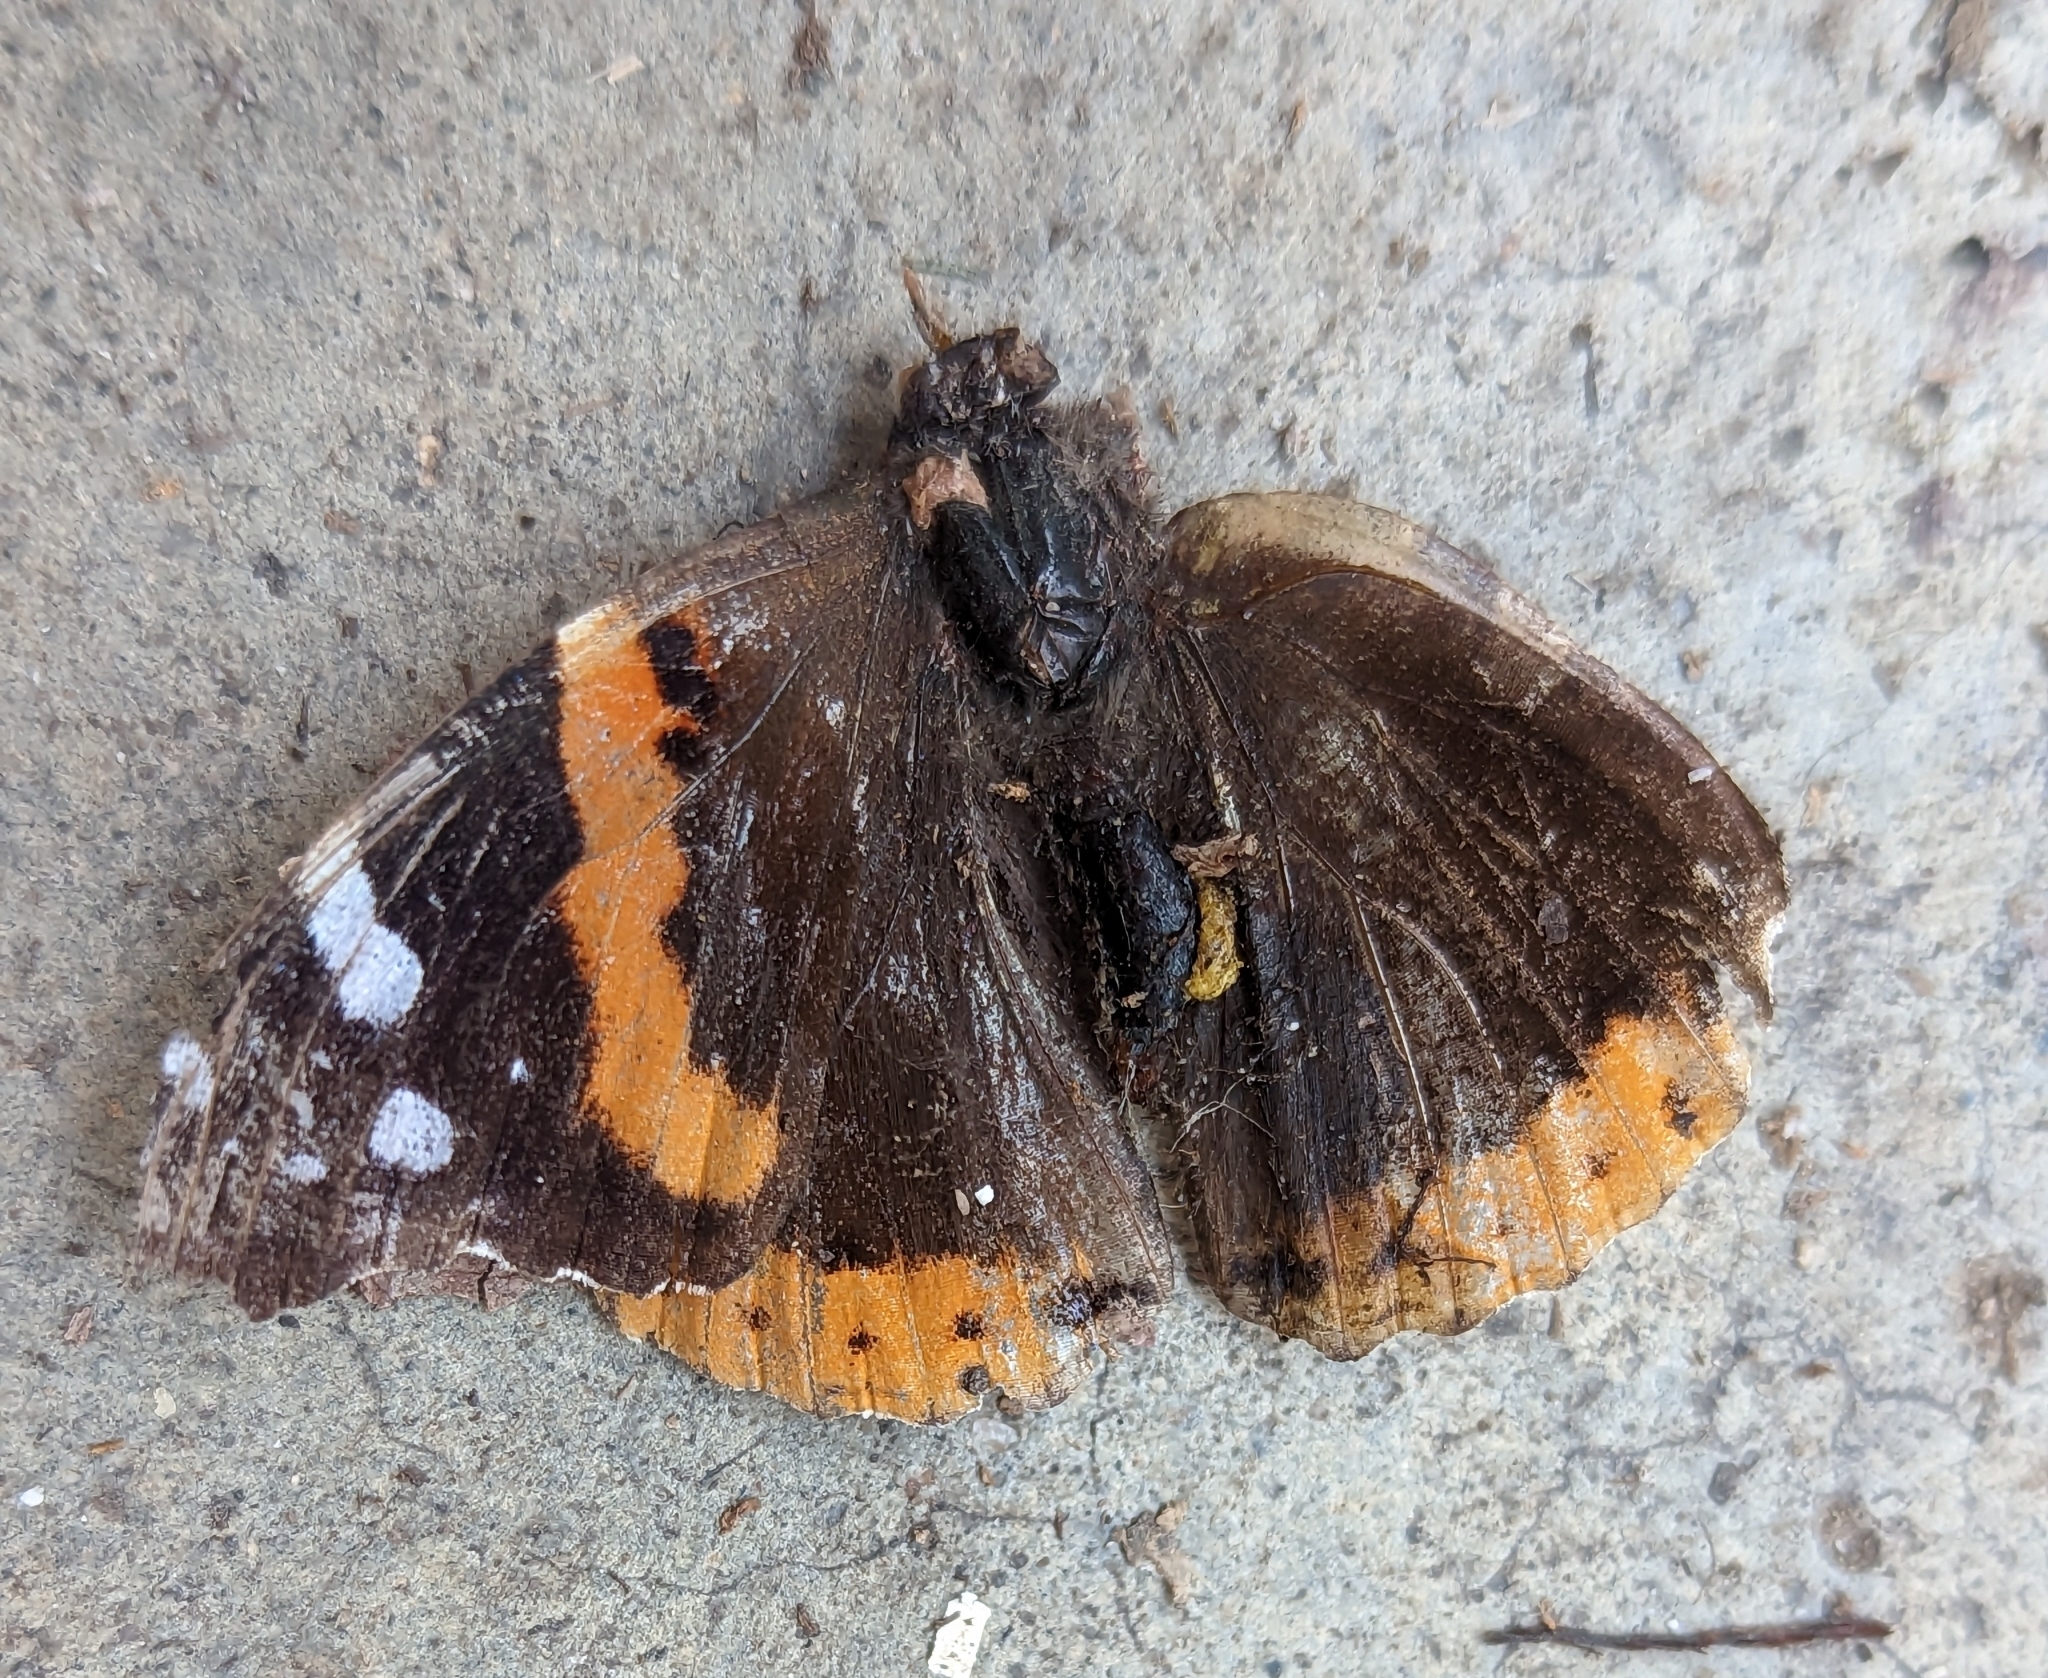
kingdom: Animalia
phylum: Arthropoda
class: Insecta
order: Lepidoptera
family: Nymphalidae
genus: Vanessa
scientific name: Vanessa atalanta
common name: Red admiral
